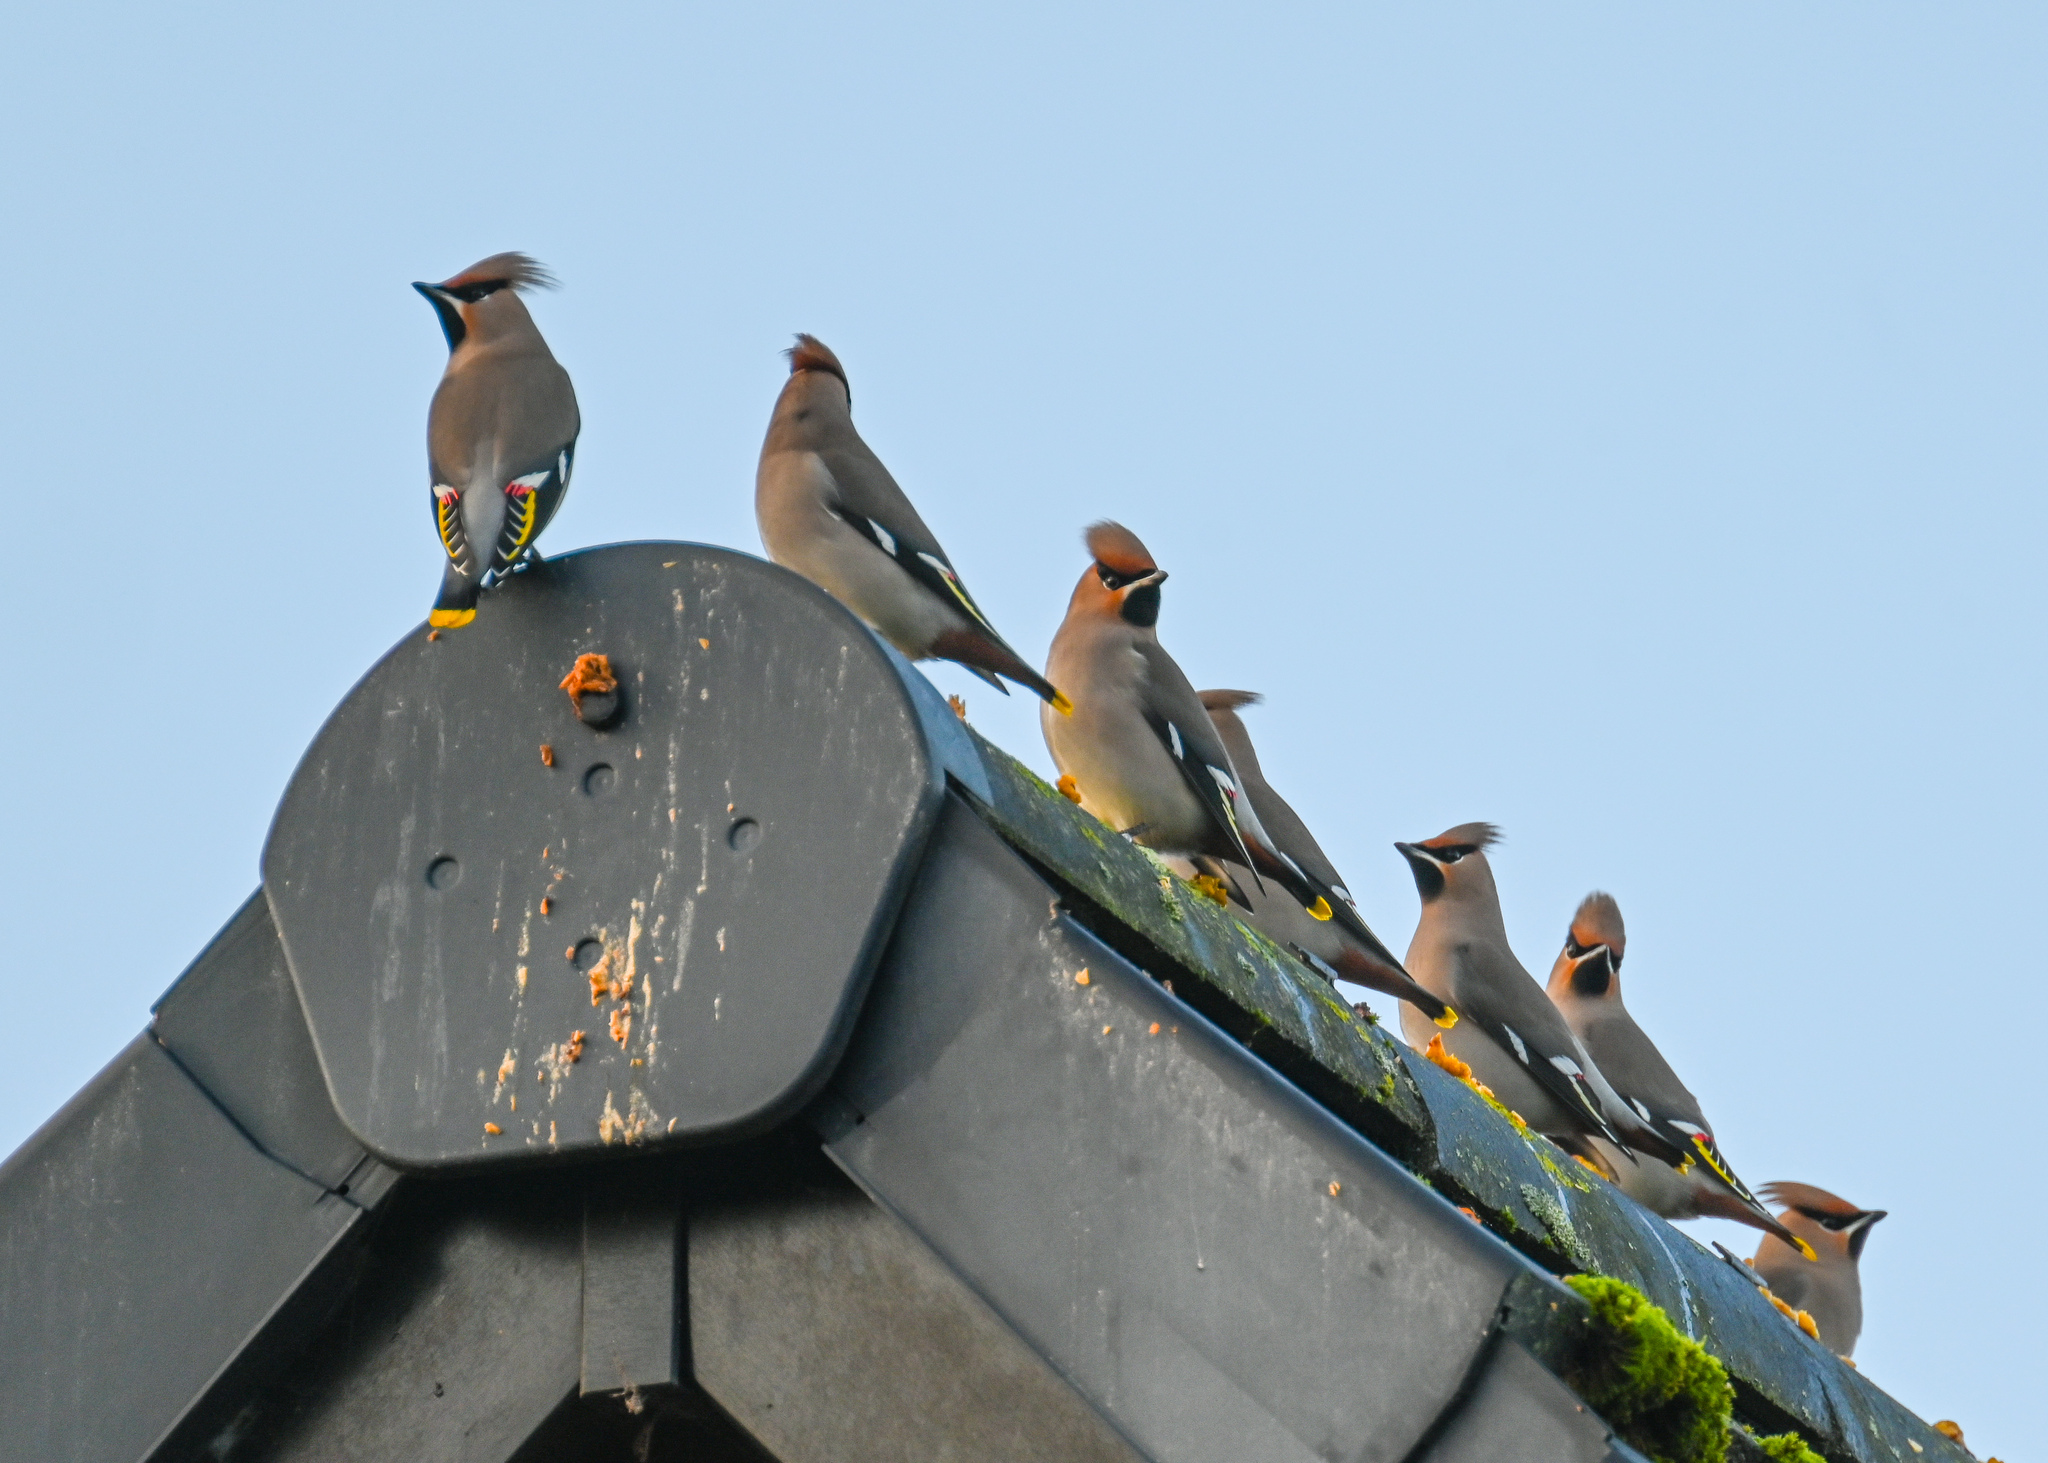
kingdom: Animalia
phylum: Chordata
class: Aves
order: Passeriformes
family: Bombycillidae
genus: Bombycilla
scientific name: Bombycilla garrulus
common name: Bohemian waxwing
